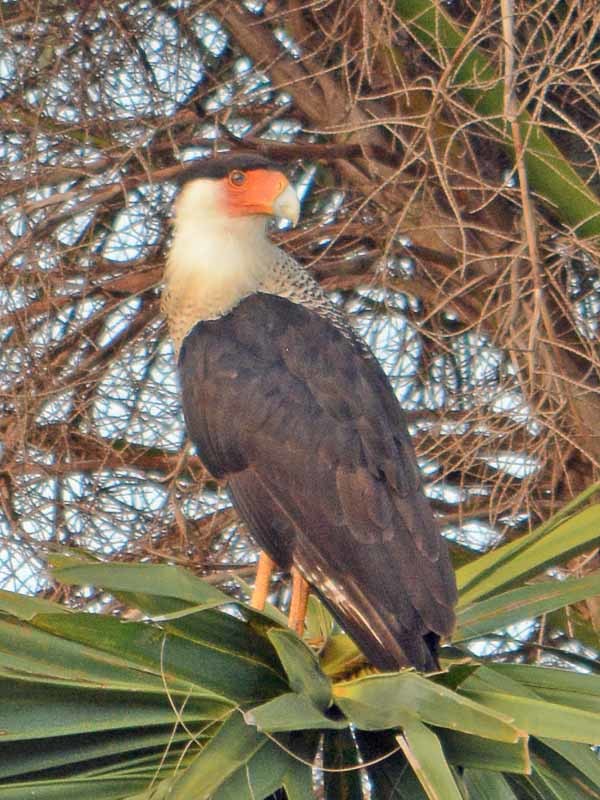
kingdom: Animalia
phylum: Chordata
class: Aves
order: Falconiformes
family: Falconidae
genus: Caracara
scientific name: Caracara plancus
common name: Southern caracara
